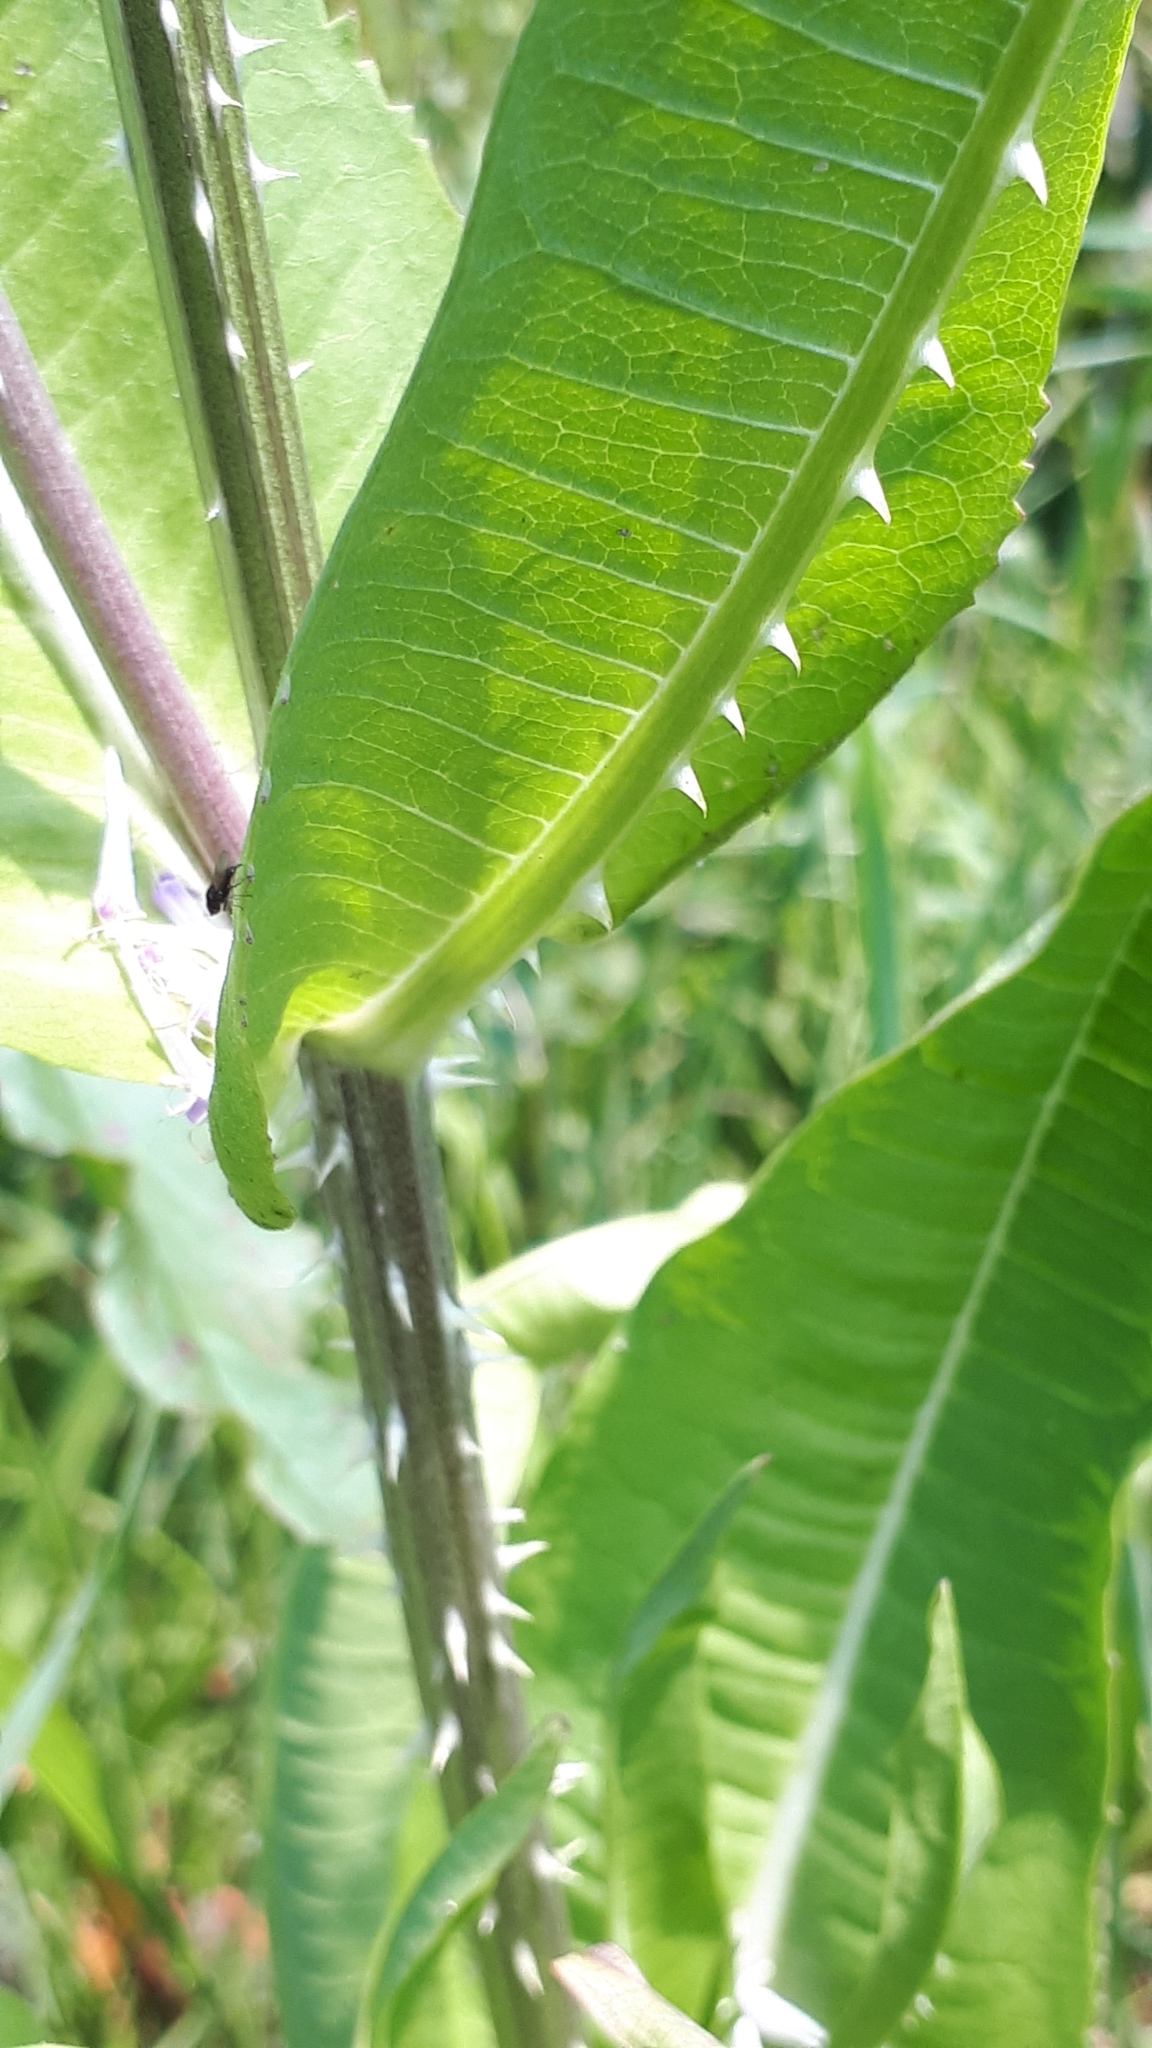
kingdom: Plantae
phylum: Tracheophyta
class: Magnoliopsida
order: Dipsacales
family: Caprifoliaceae
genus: Dipsacus
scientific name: Dipsacus fullonum
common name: Teasel
